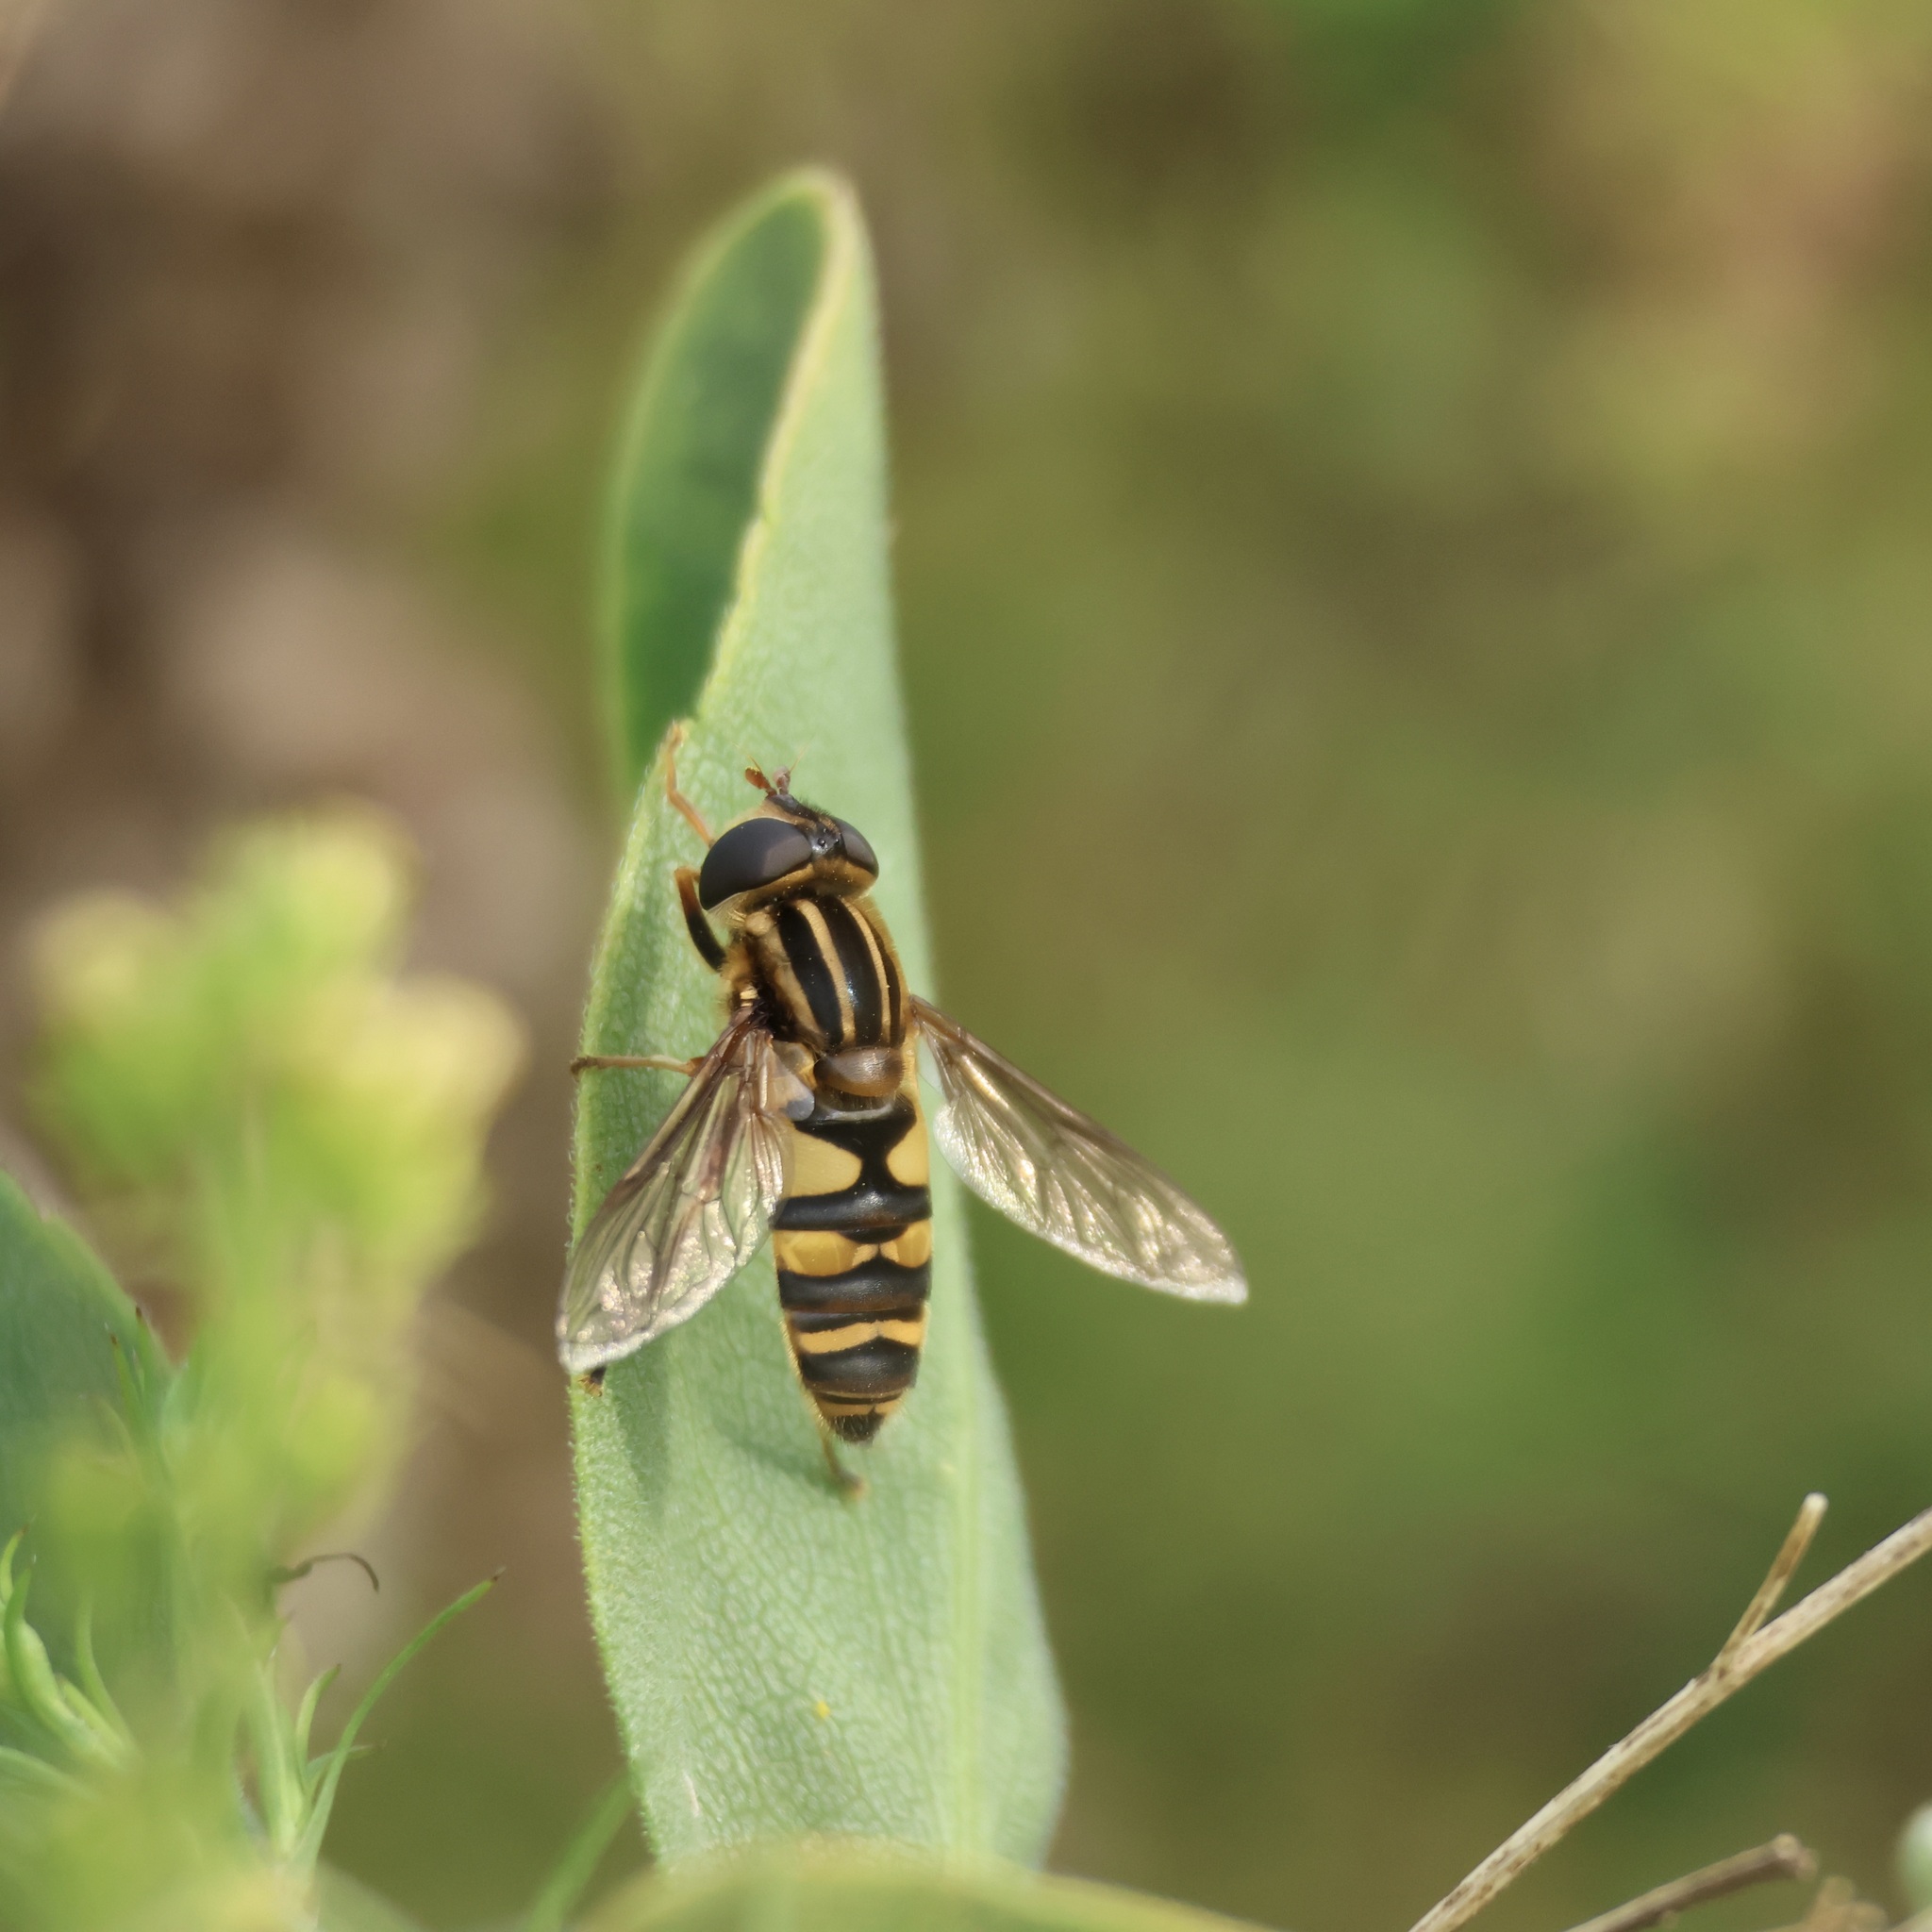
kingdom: Animalia
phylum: Arthropoda
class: Insecta
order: Diptera
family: Syrphidae
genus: Helophilus
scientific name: Helophilus fasciatus
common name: Narrow-headed marsh fly
